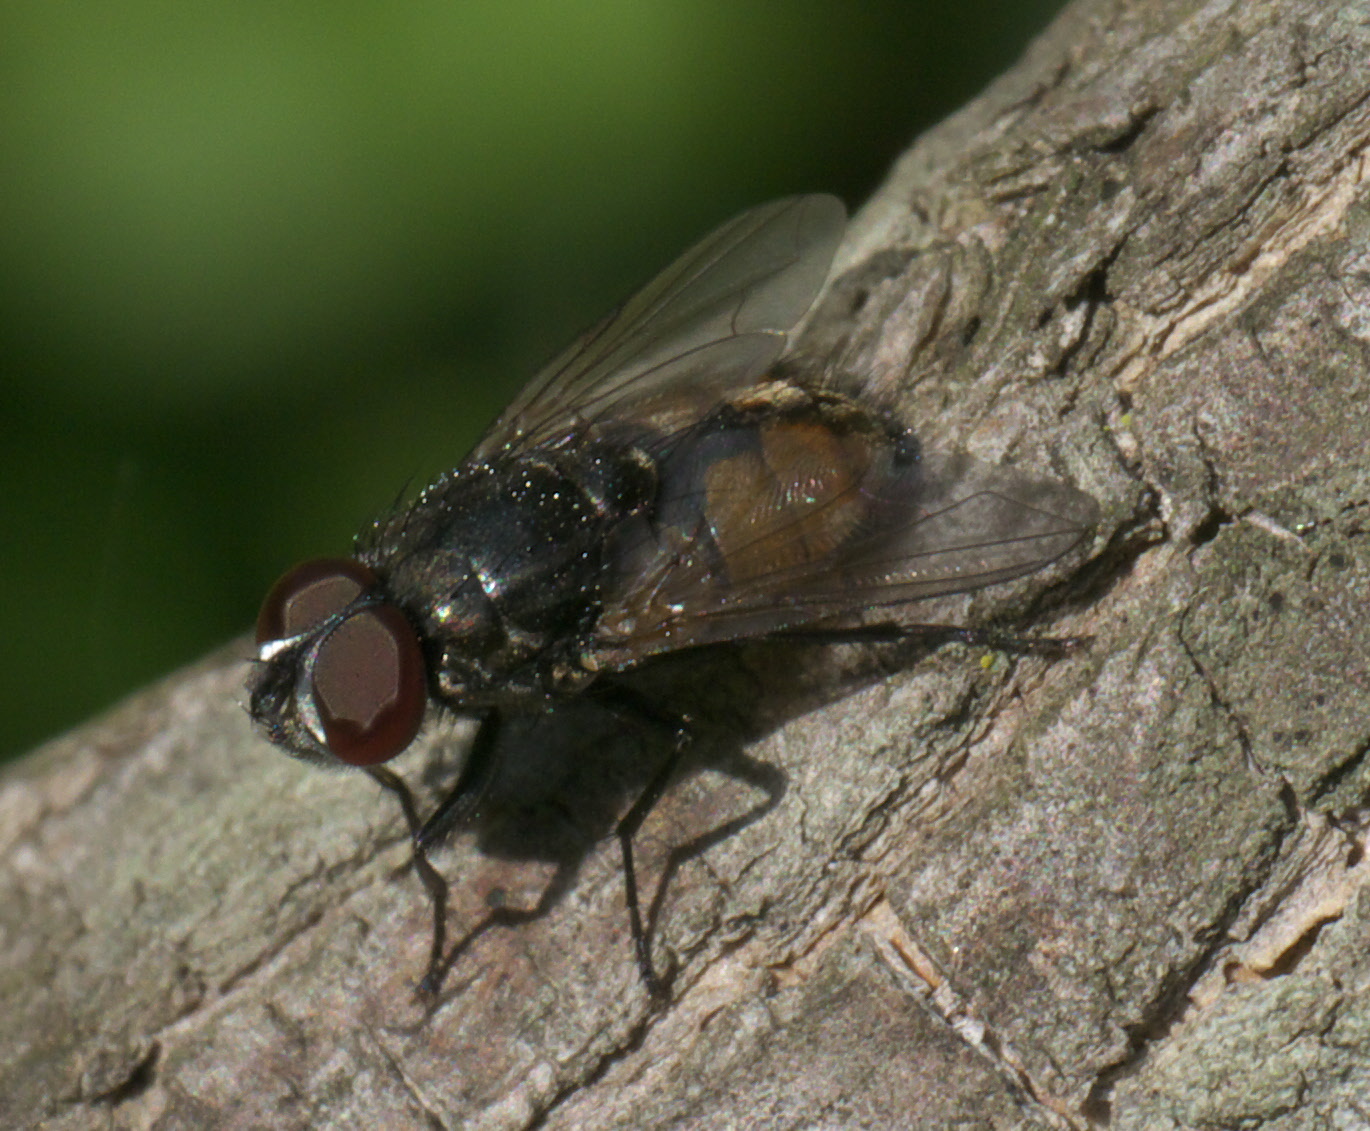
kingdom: Animalia
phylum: Arthropoda
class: Insecta
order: Diptera
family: Muscidae
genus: Musca
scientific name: Musca autumnalis
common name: Face fly
